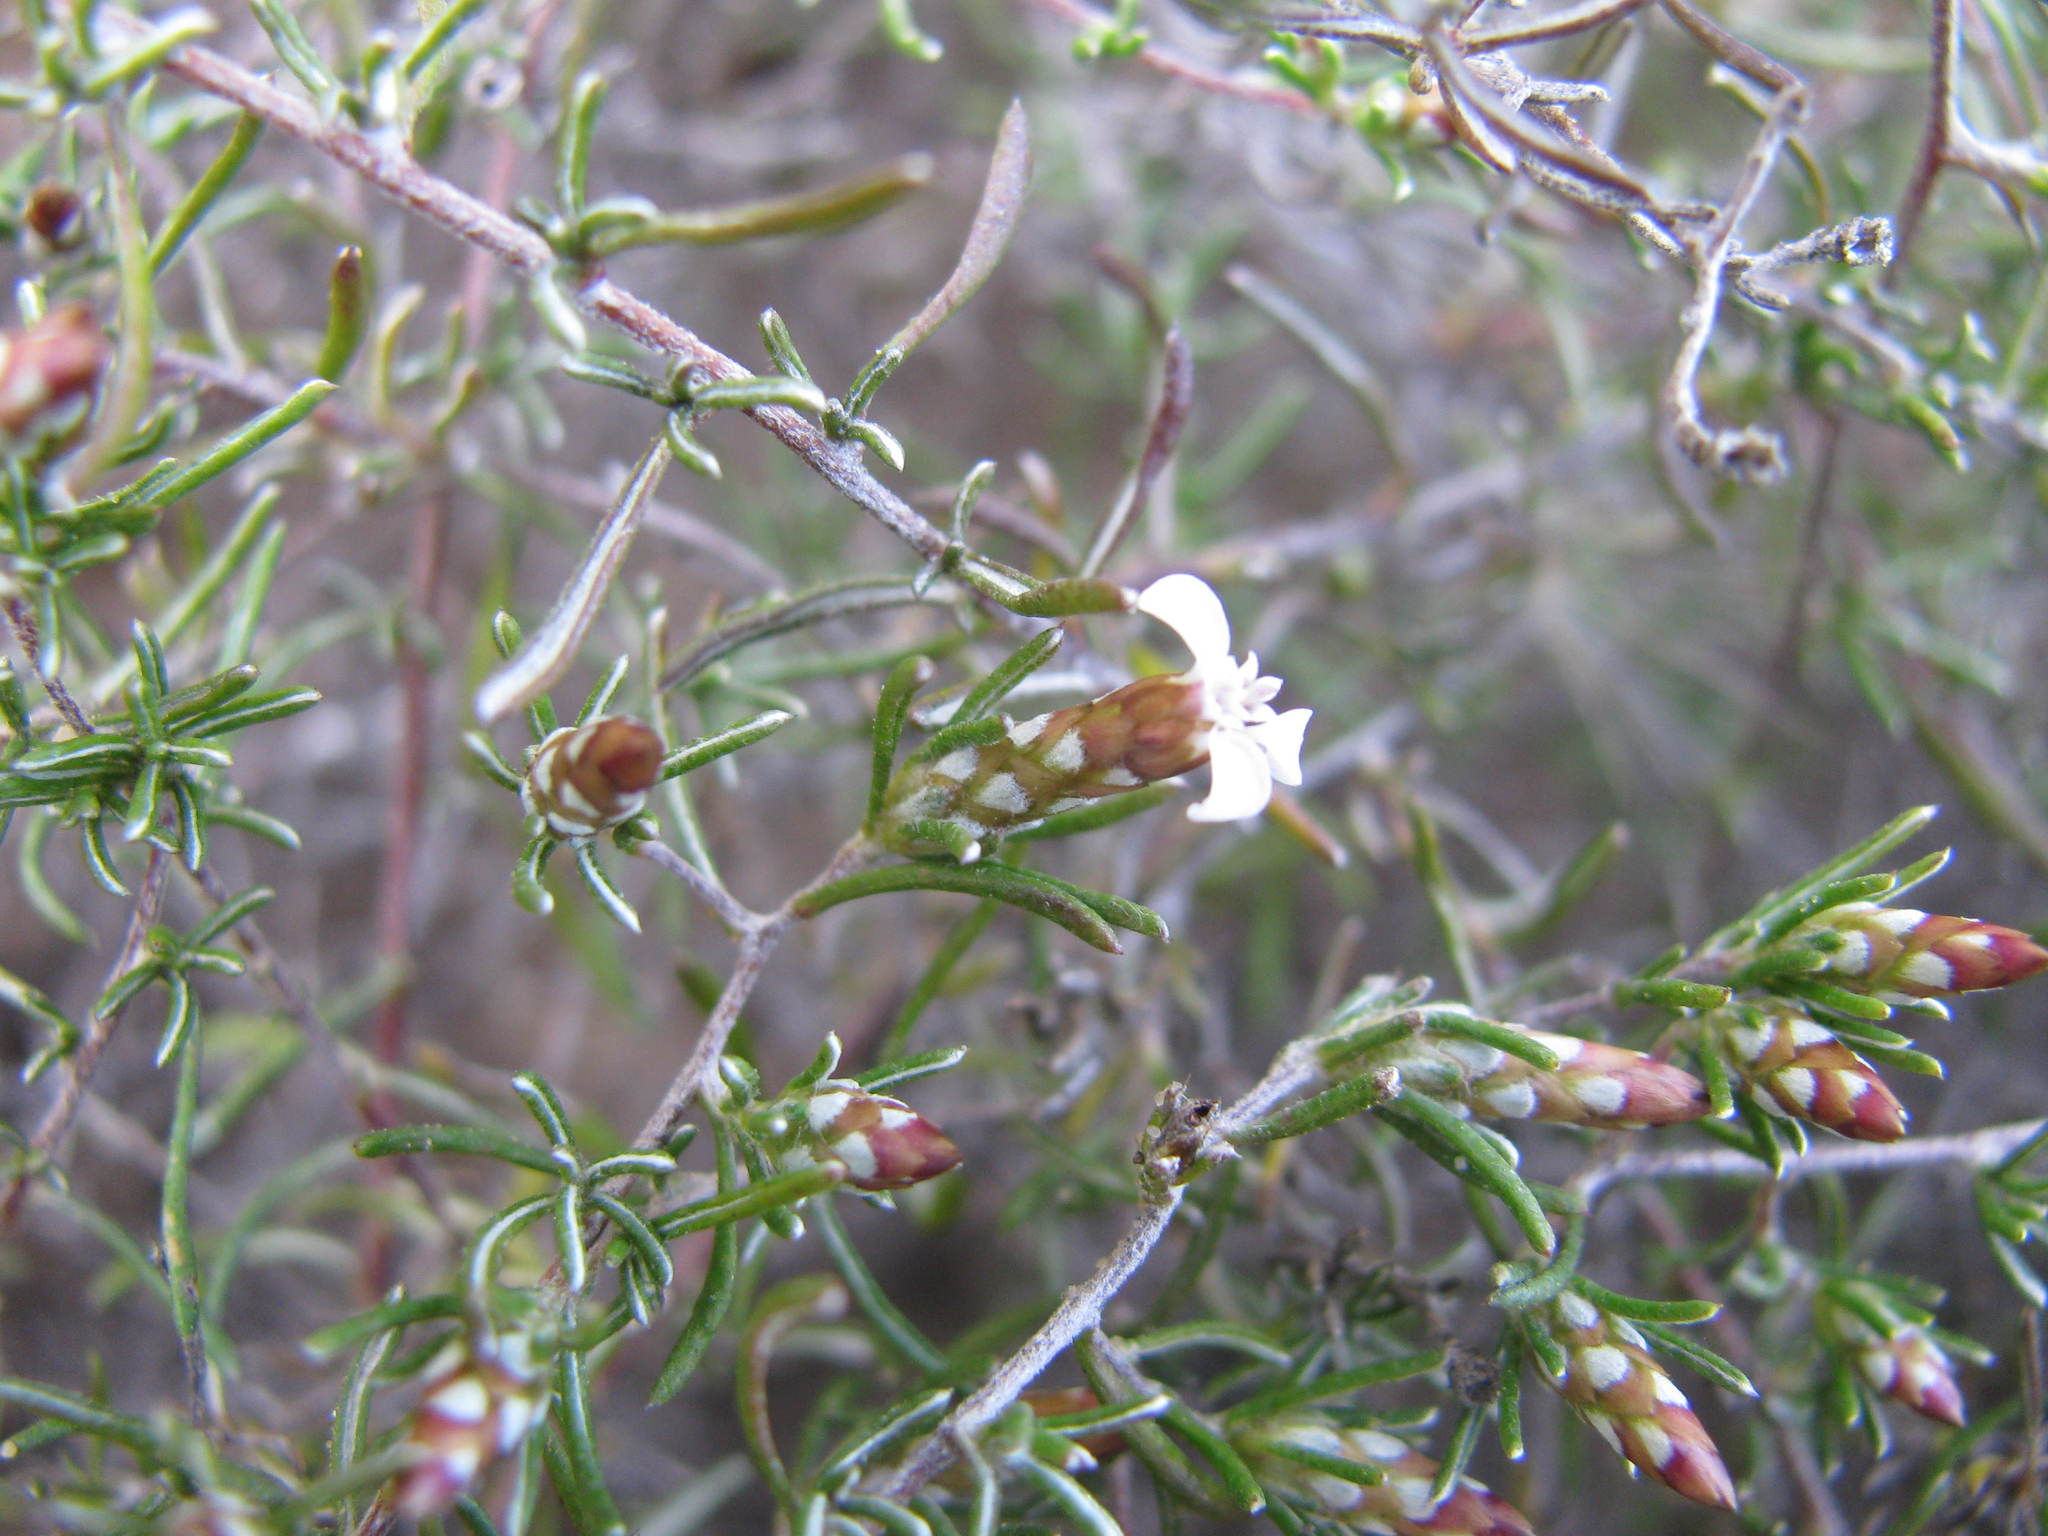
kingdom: Plantae
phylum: Tracheophyta
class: Magnoliopsida
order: Asterales
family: Asteraceae
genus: Amphiglossa
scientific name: Amphiglossa tomentosa
